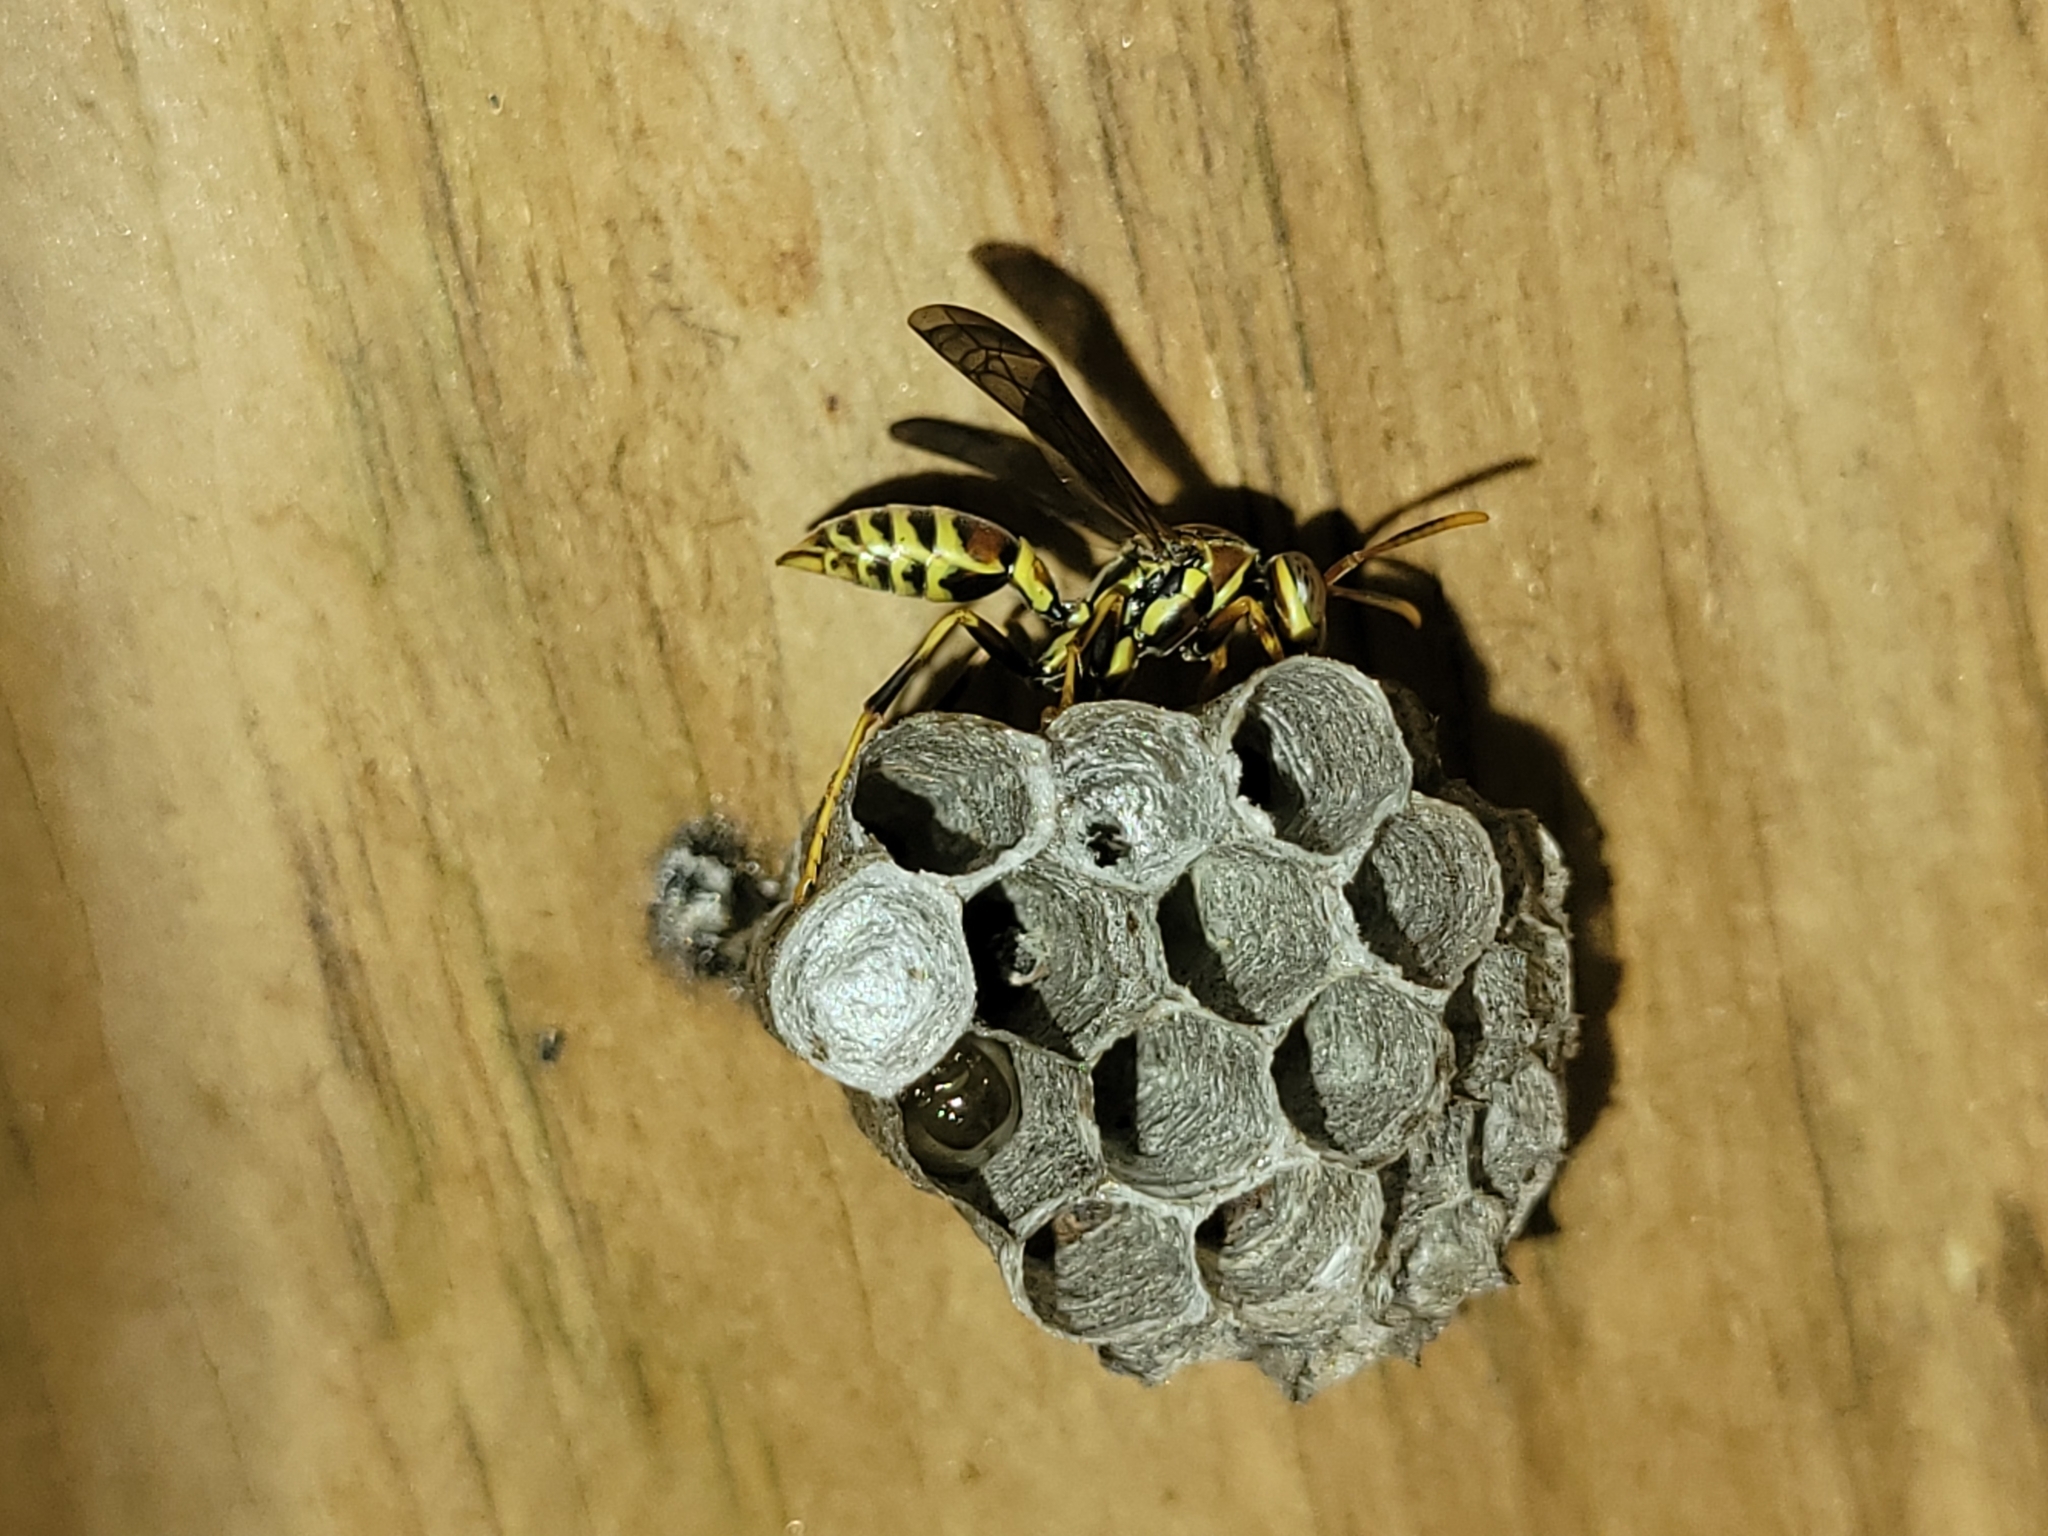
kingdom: Animalia
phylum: Arthropoda
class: Insecta
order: Hymenoptera
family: Eumenidae
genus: Polistes
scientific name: Polistes exclamans
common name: Paper wasp
